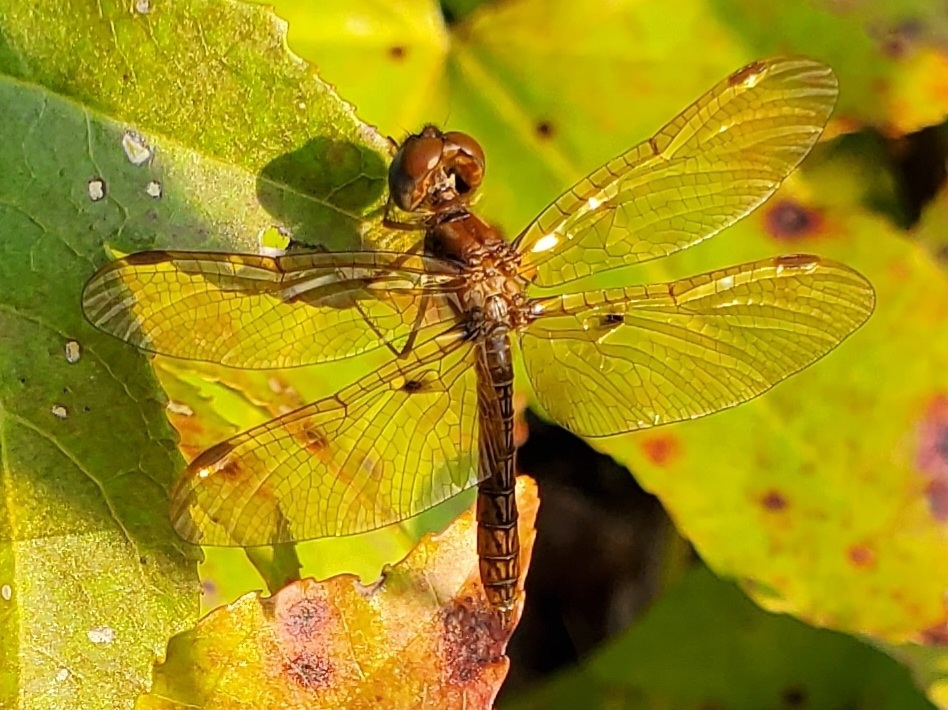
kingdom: Animalia
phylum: Arthropoda
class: Insecta
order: Odonata
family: Libellulidae
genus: Perithemis
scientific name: Perithemis tenera
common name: Eastern amberwing
